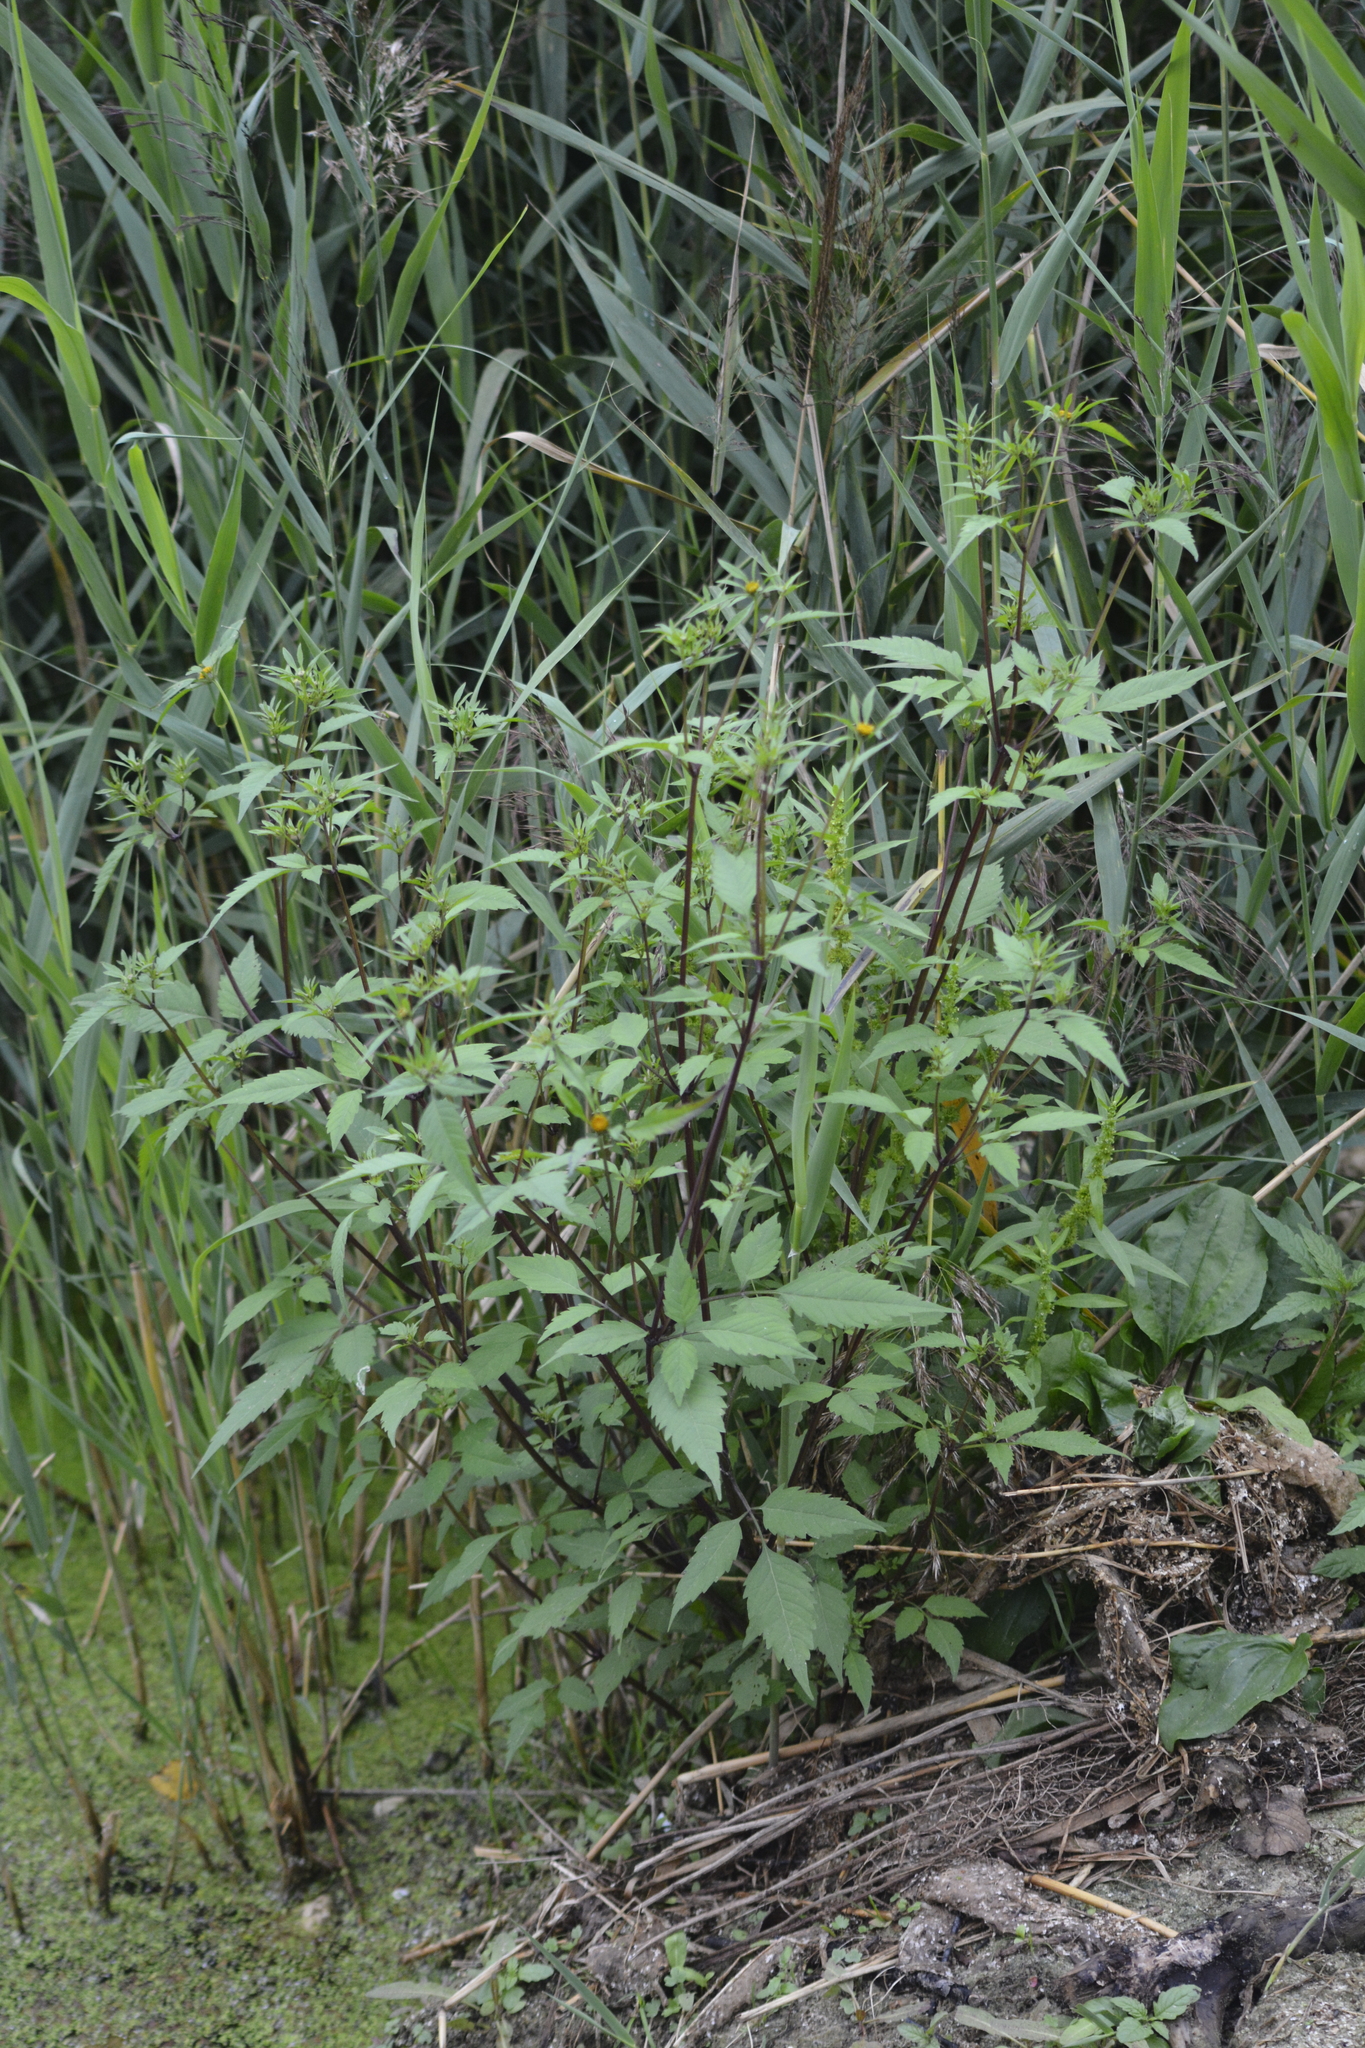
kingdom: Plantae
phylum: Tracheophyta
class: Magnoliopsida
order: Asterales
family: Asteraceae
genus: Bidens
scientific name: Bidens frondosa
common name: Beggarticks
